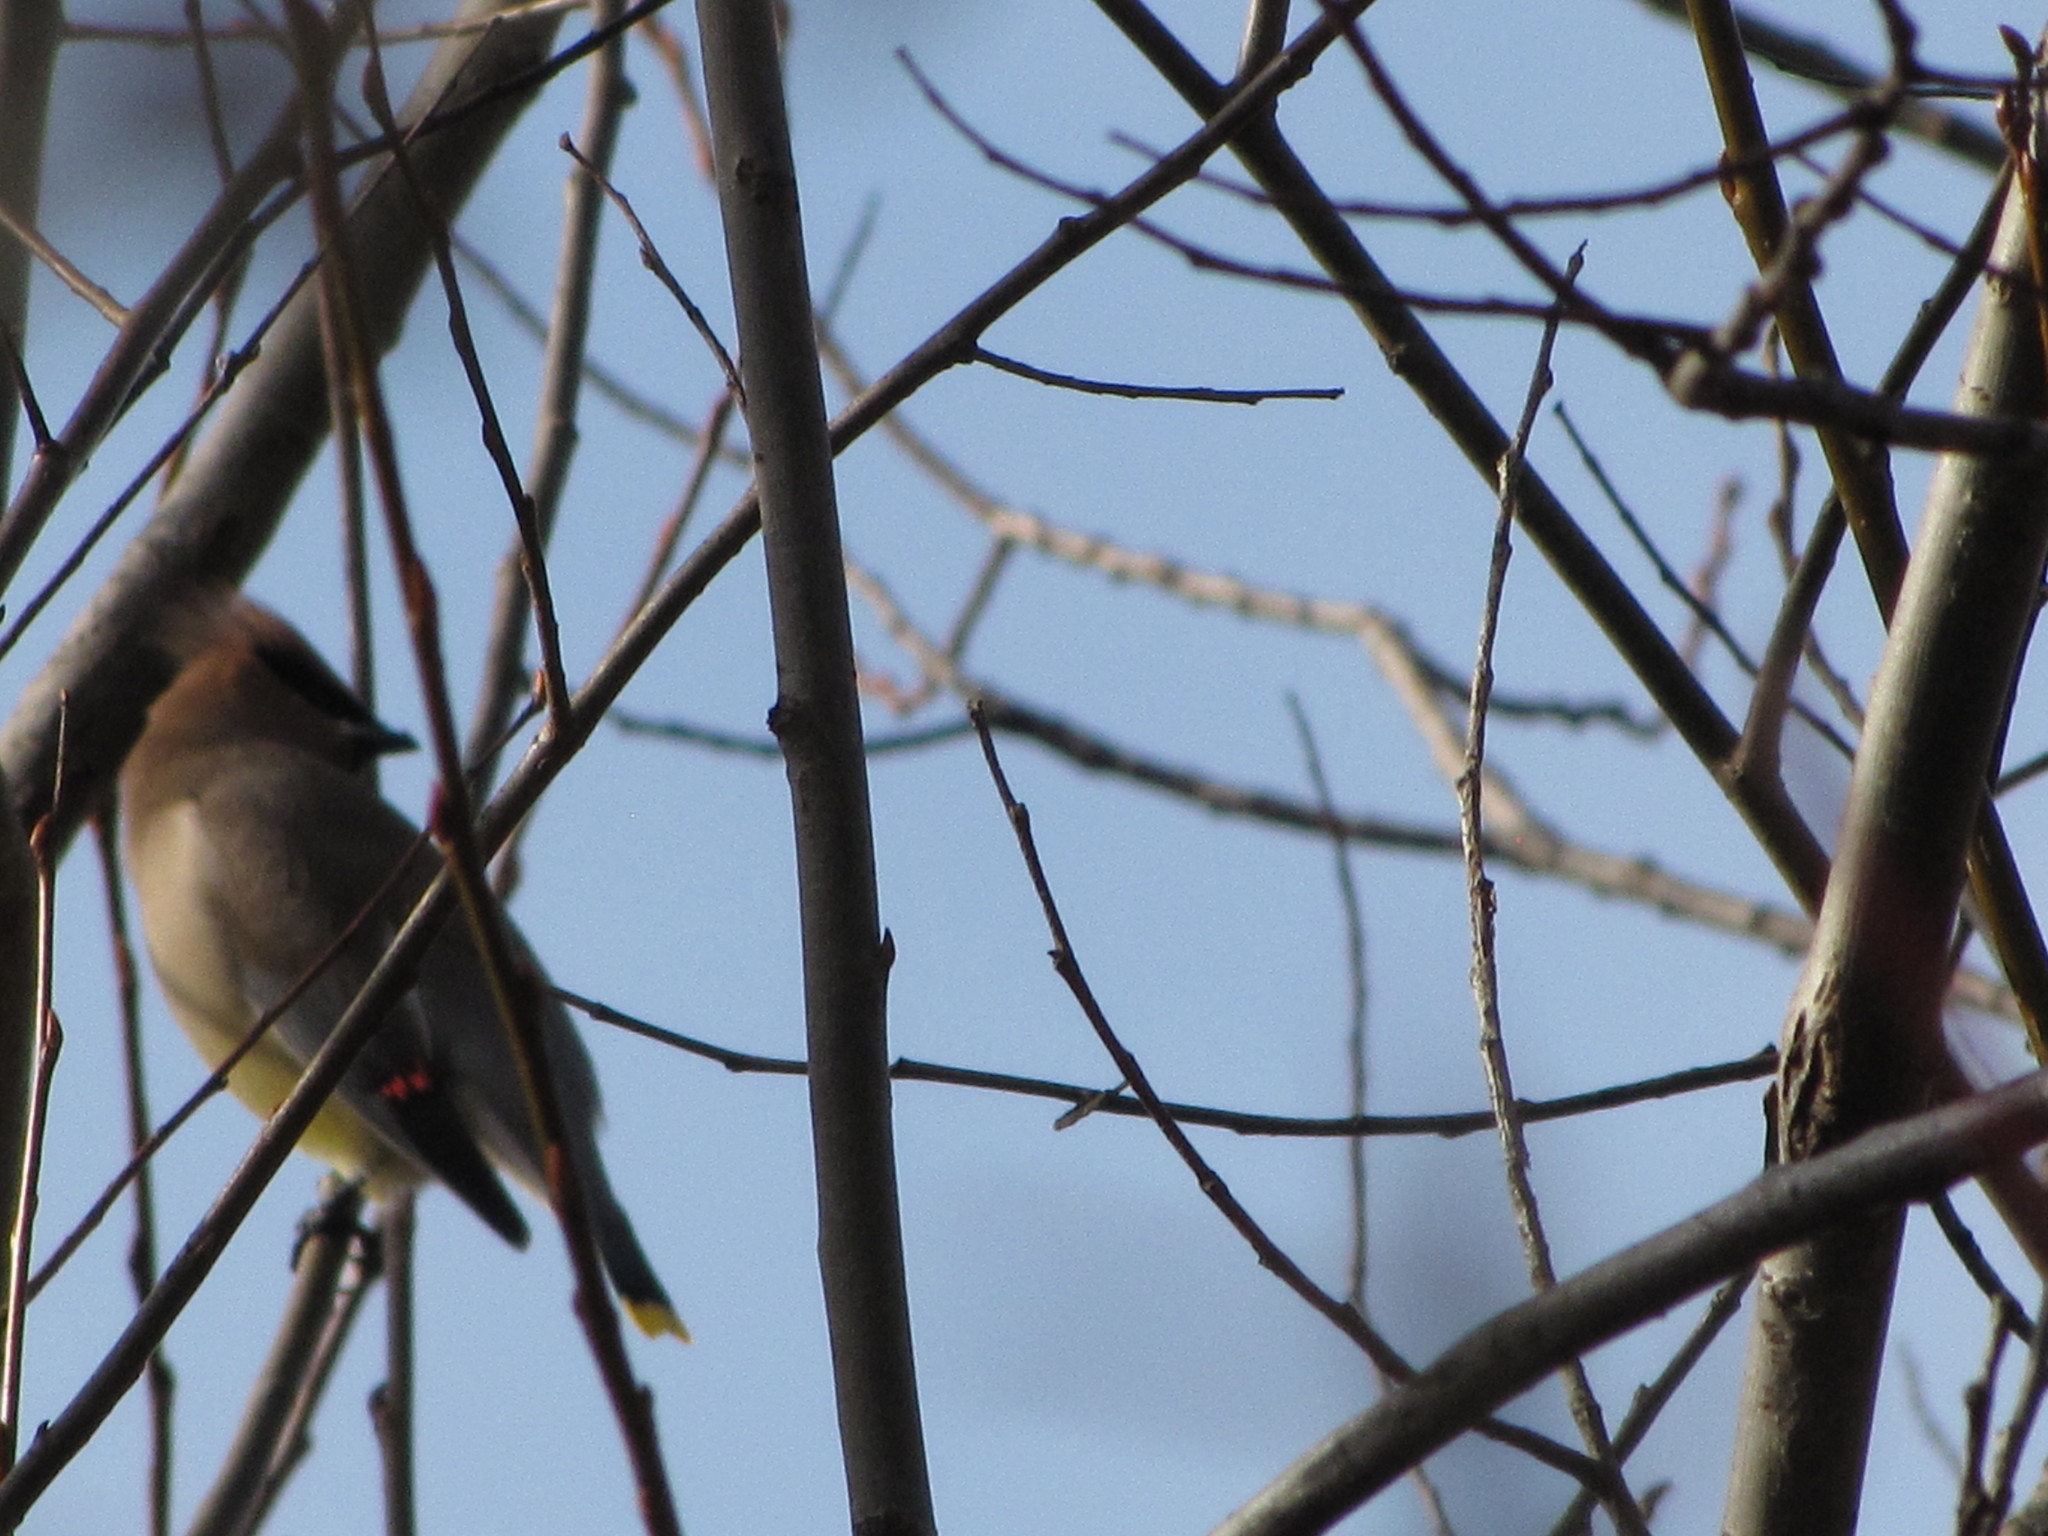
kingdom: Animalia
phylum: Chordata
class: Aves
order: Passeriformes
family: Bombycillidae
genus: Bombycilla
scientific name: Bombycilla cedrorum
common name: Cedar waxwing
